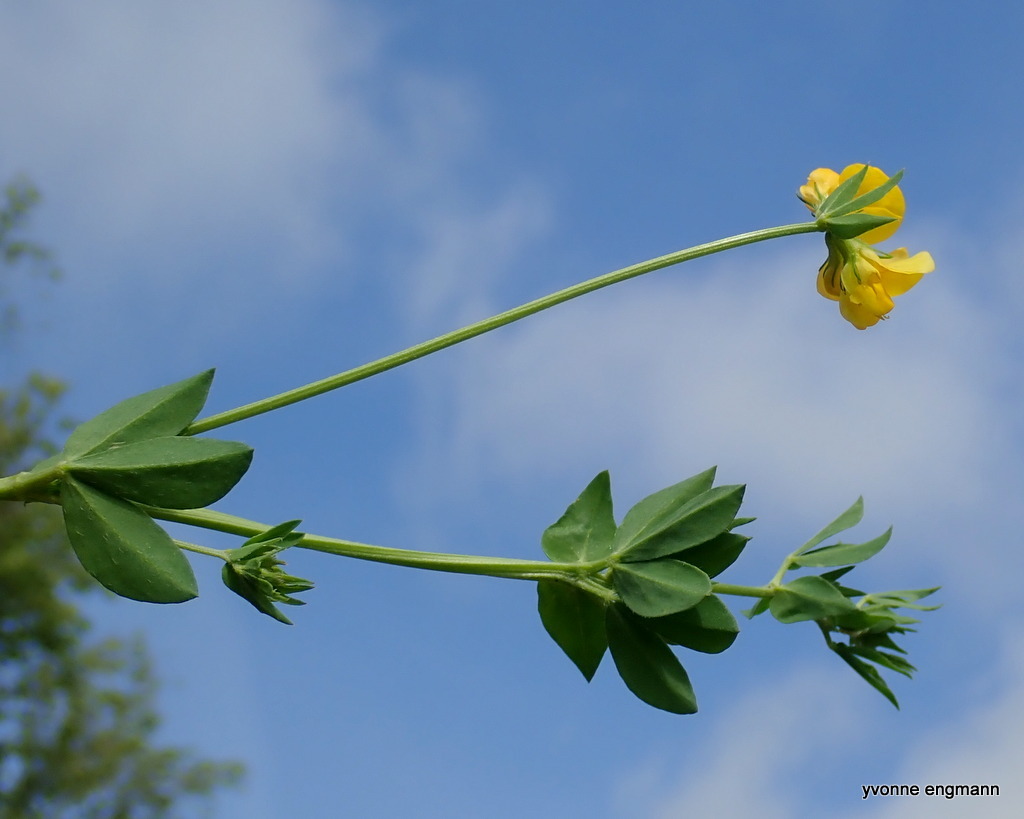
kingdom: Plantae
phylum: Tracheophyta
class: Magnoliopsida
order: Fabales
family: Fabaceae
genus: Lotus
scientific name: Lotus corniculatus
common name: Common bird's-foot-trefoil
